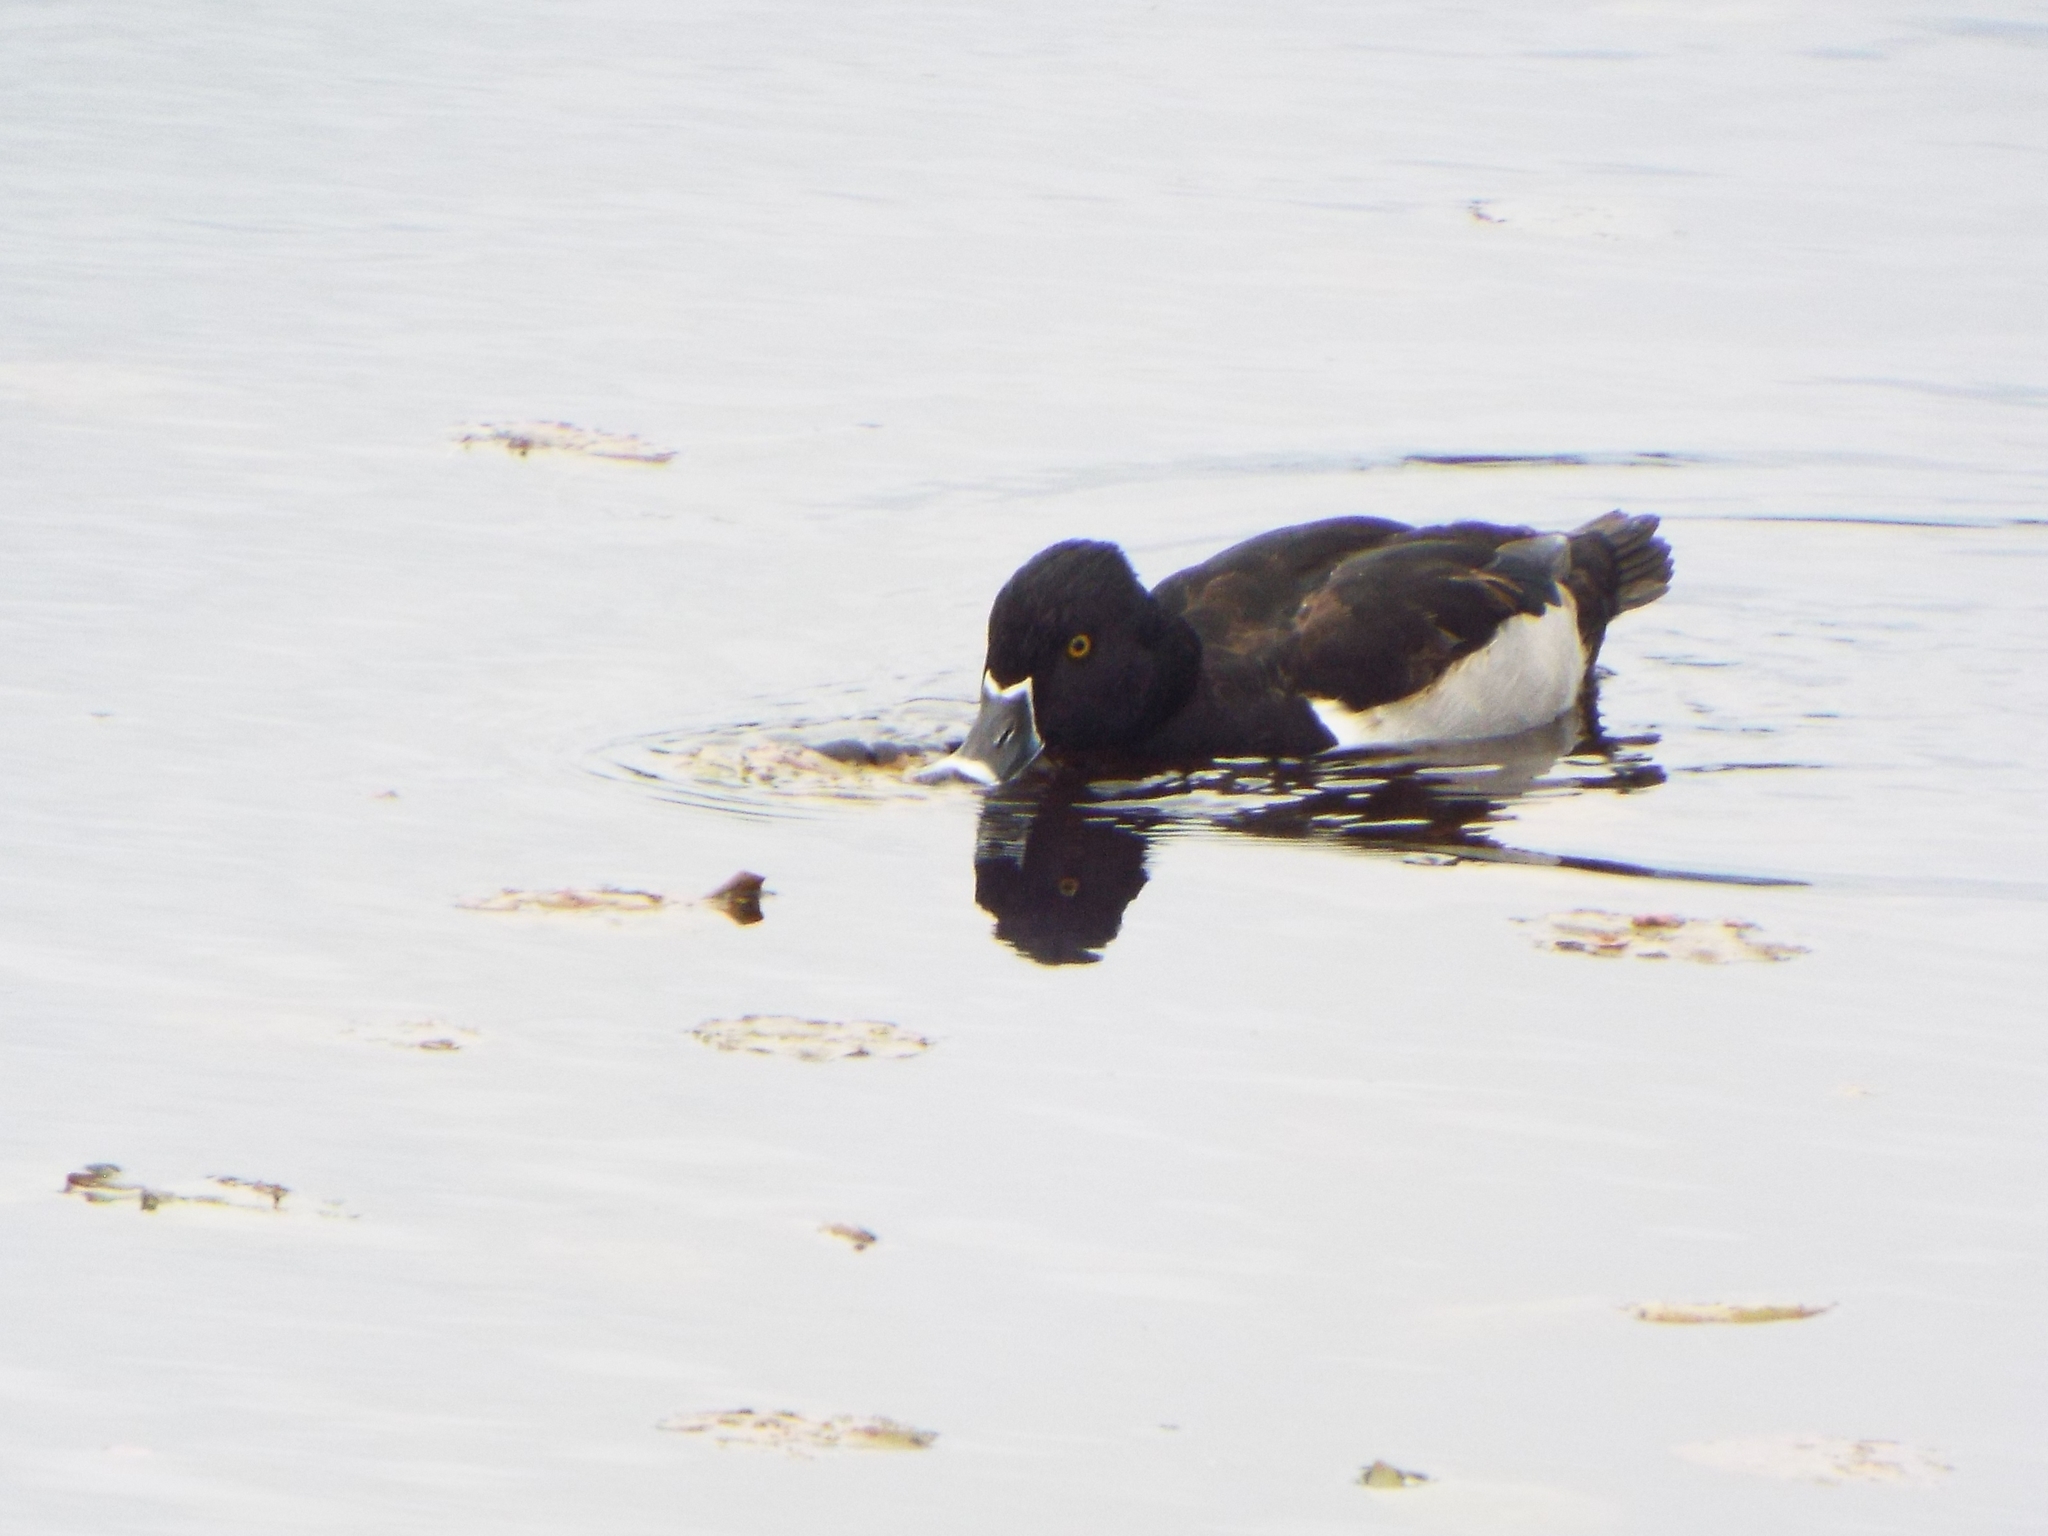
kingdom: Animalia
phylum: Chordata
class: Aves
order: Anseriformes
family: Anatidae
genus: Aythya
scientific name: Aythya collaris
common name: Ring-necked duck
